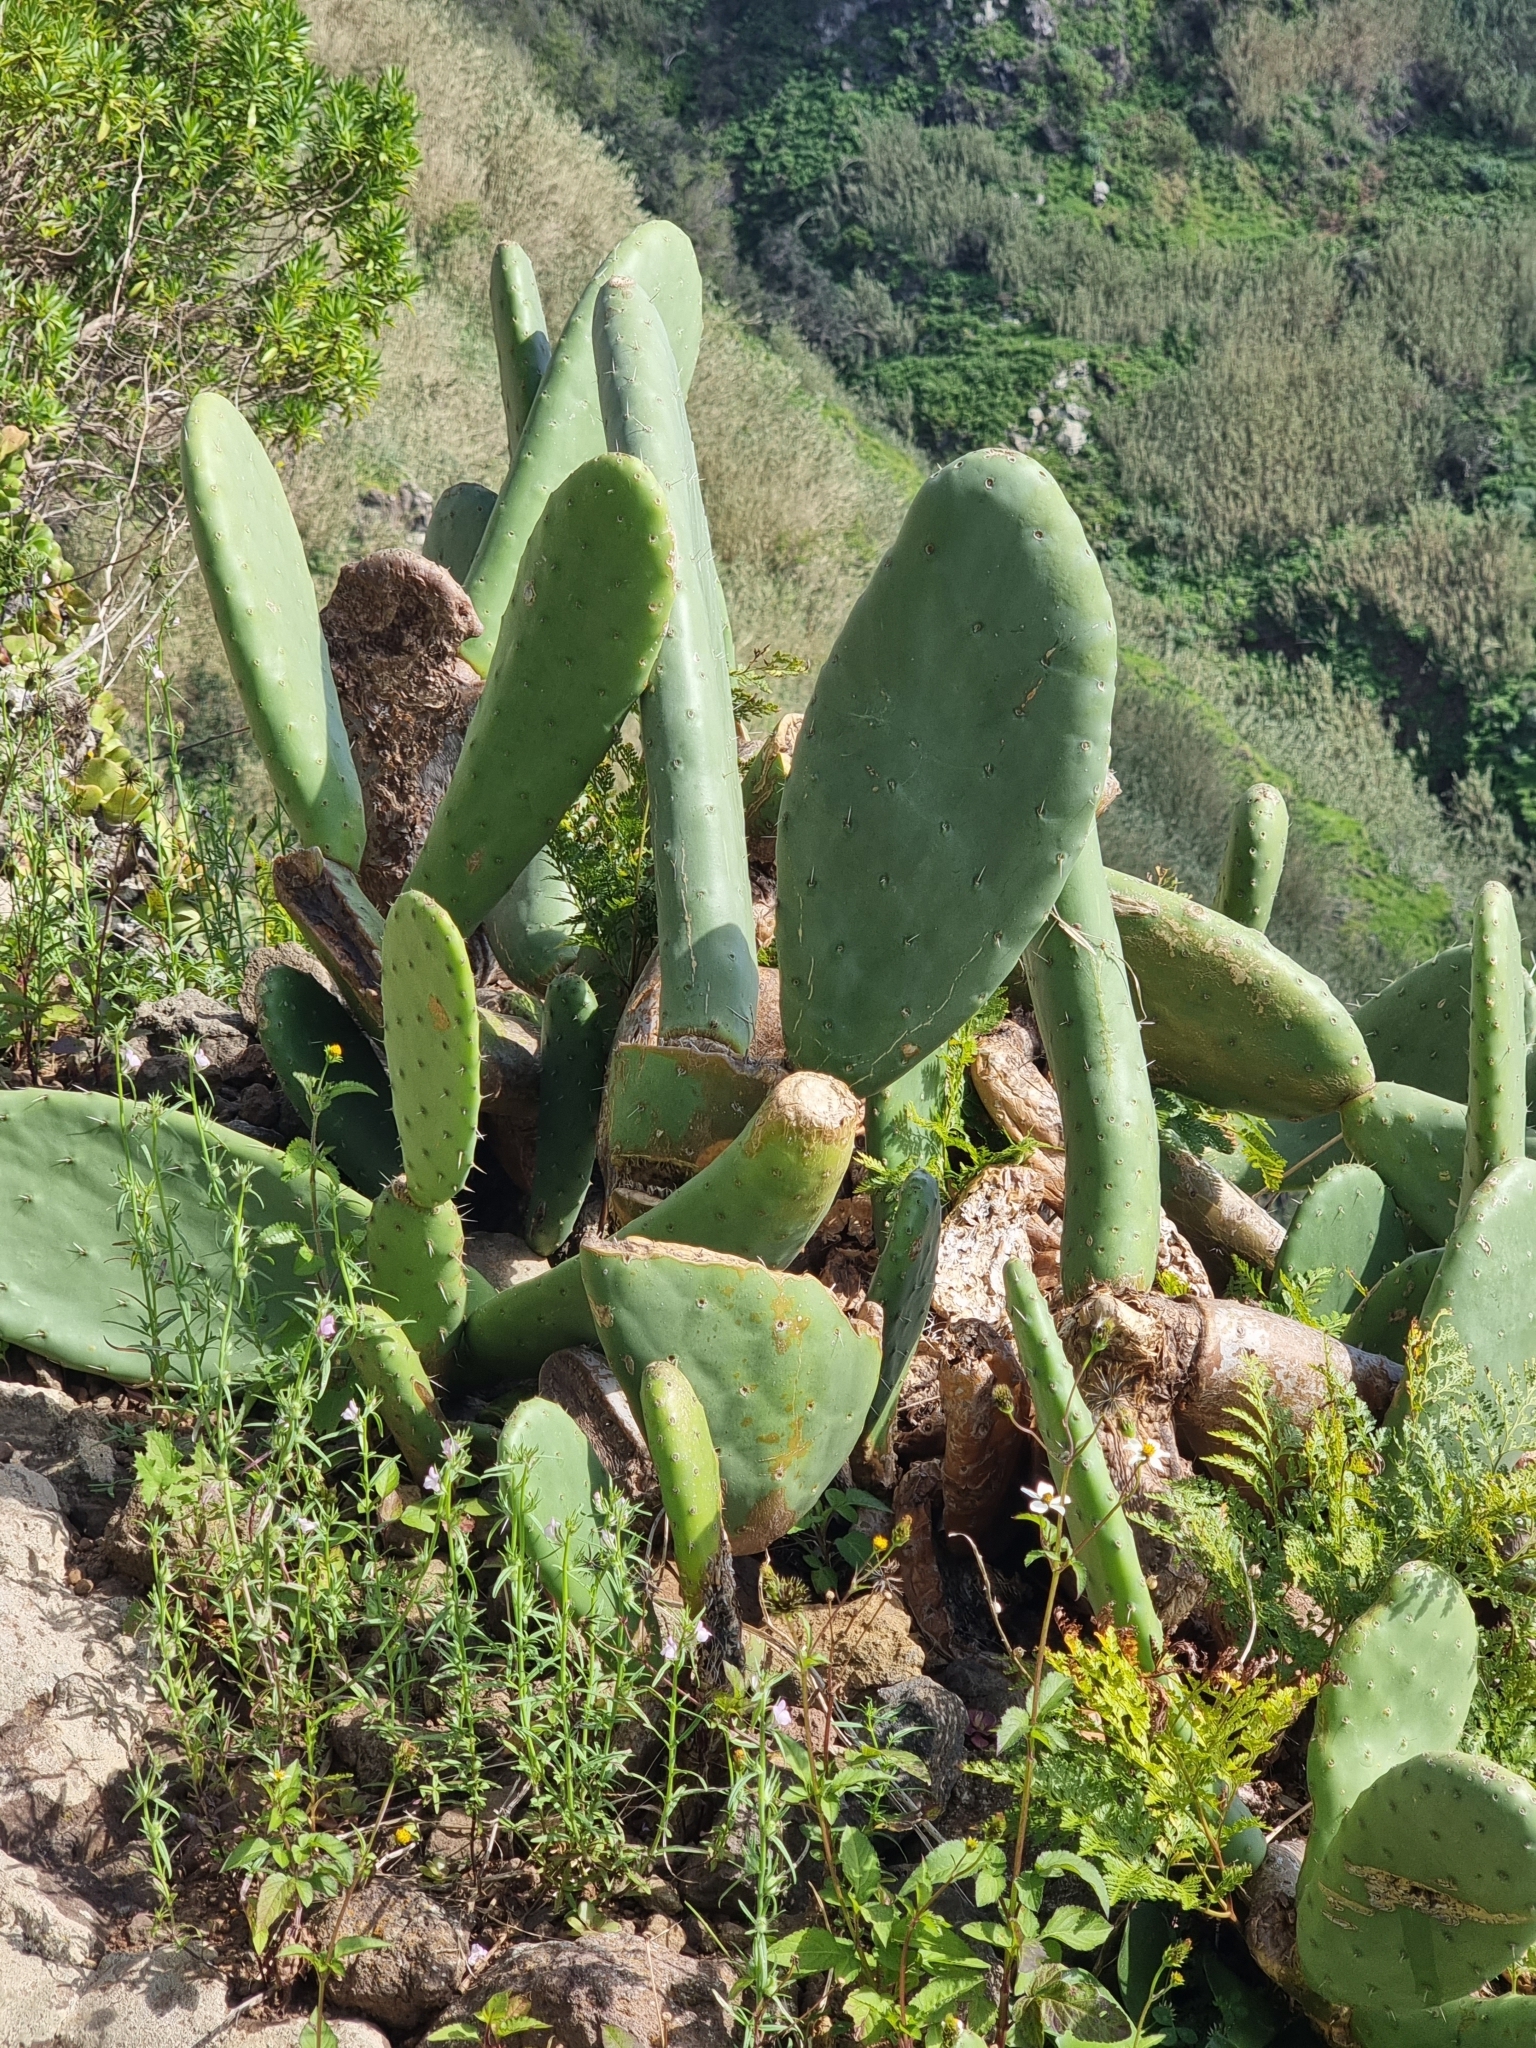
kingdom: Plantae
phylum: Tracheophyta
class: Magnoliopsida
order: Caryophyllales
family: Cactaceae
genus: Opuntia
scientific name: Opuntia ficus-indica
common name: Barbary fig
